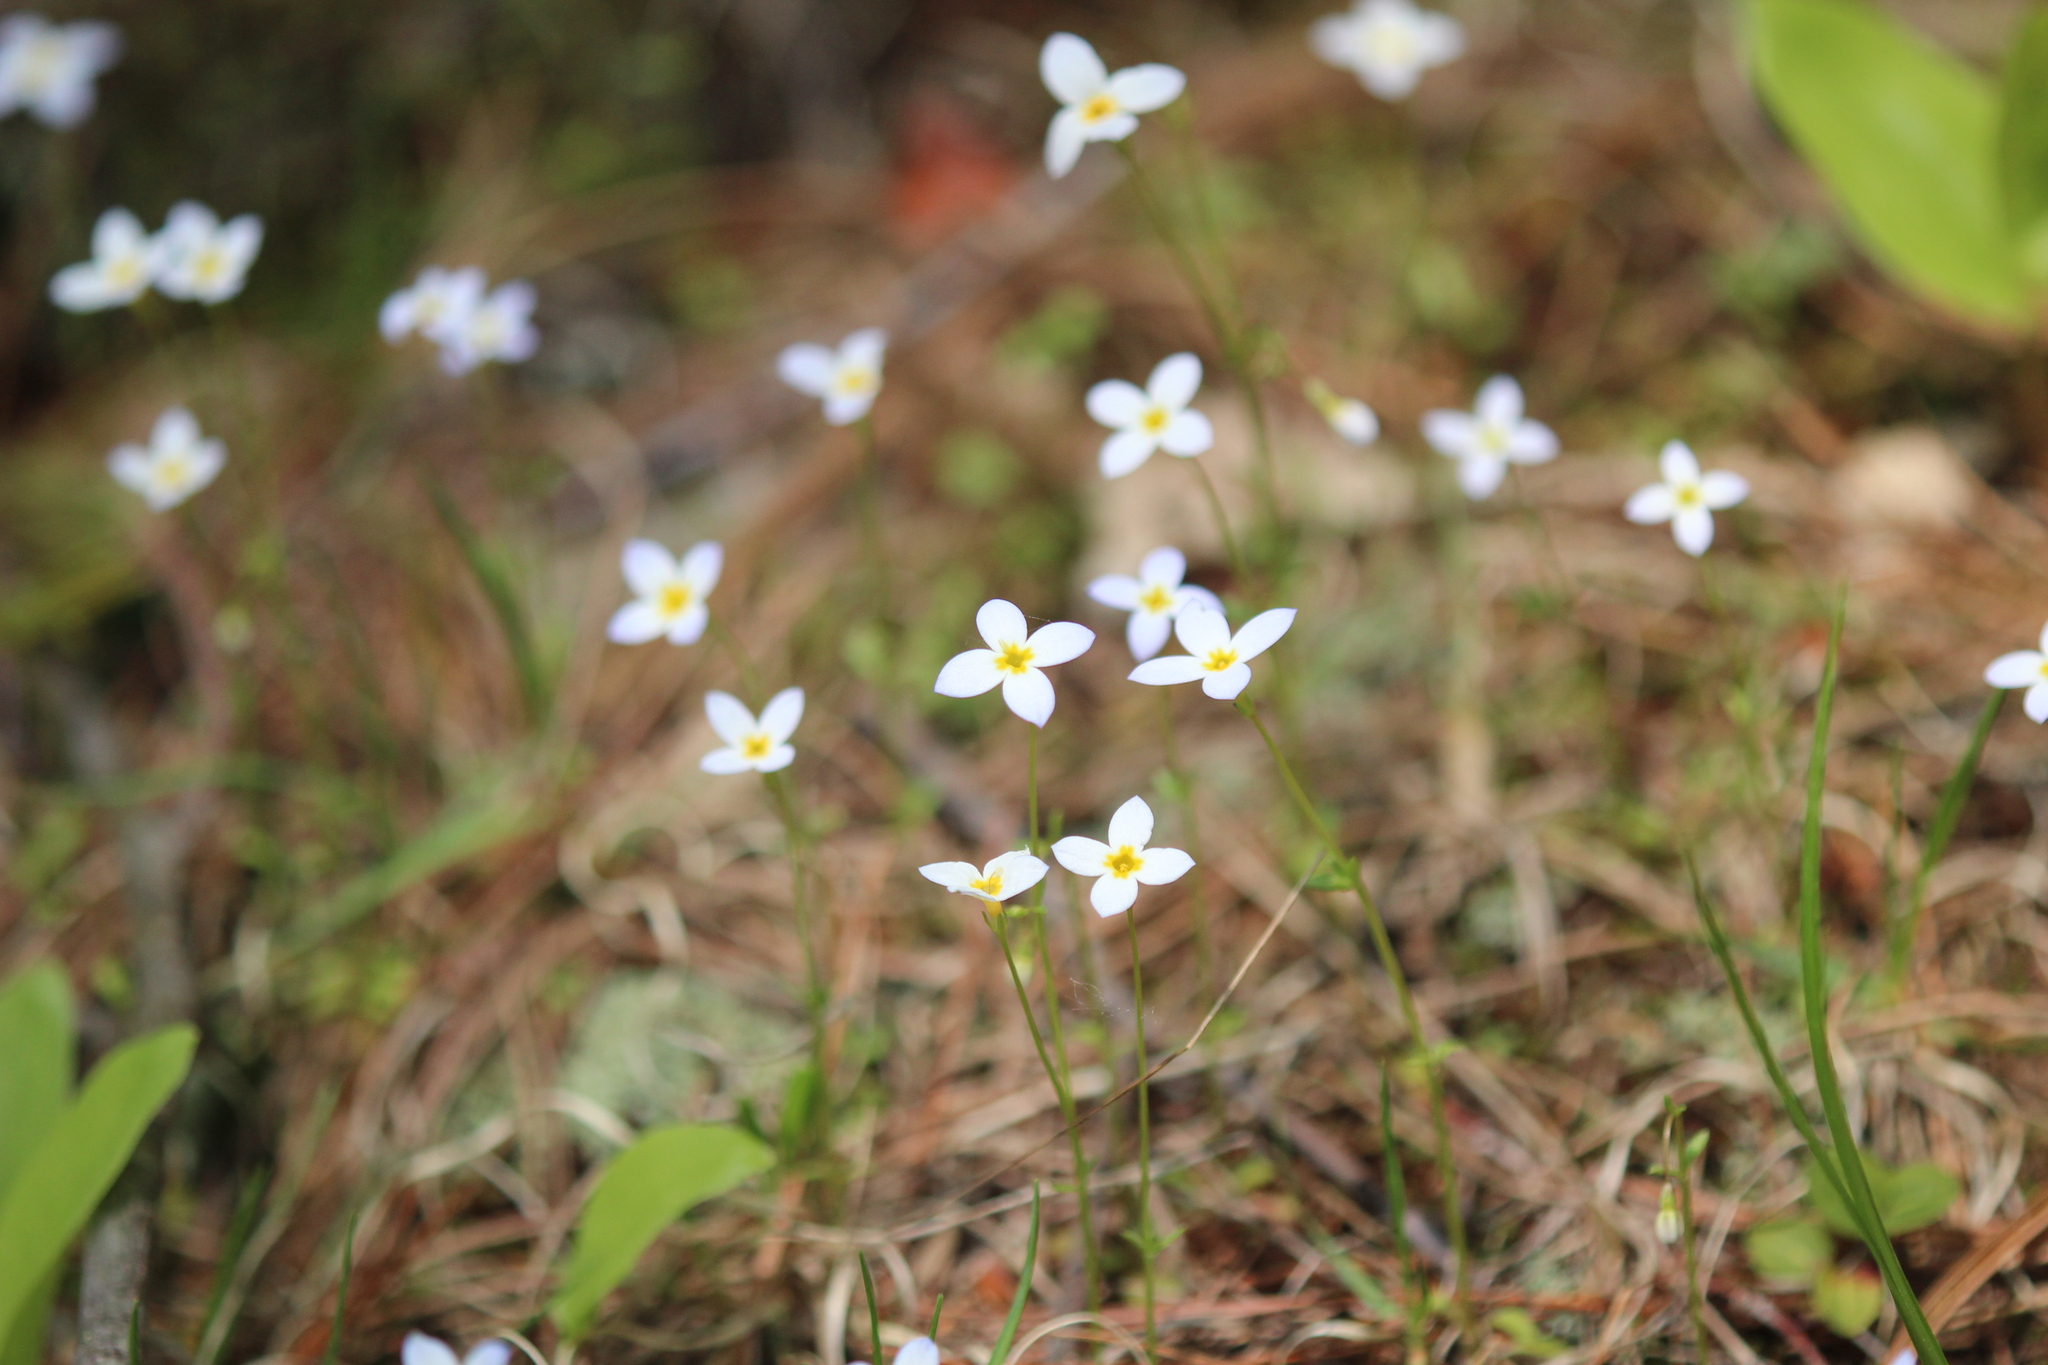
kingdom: Plantae
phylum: Tracheophyta
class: Magnoliopsida
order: Gentianales
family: Rubiaceae
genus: Houstonia
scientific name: Houstonia caerulea
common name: Bluets
